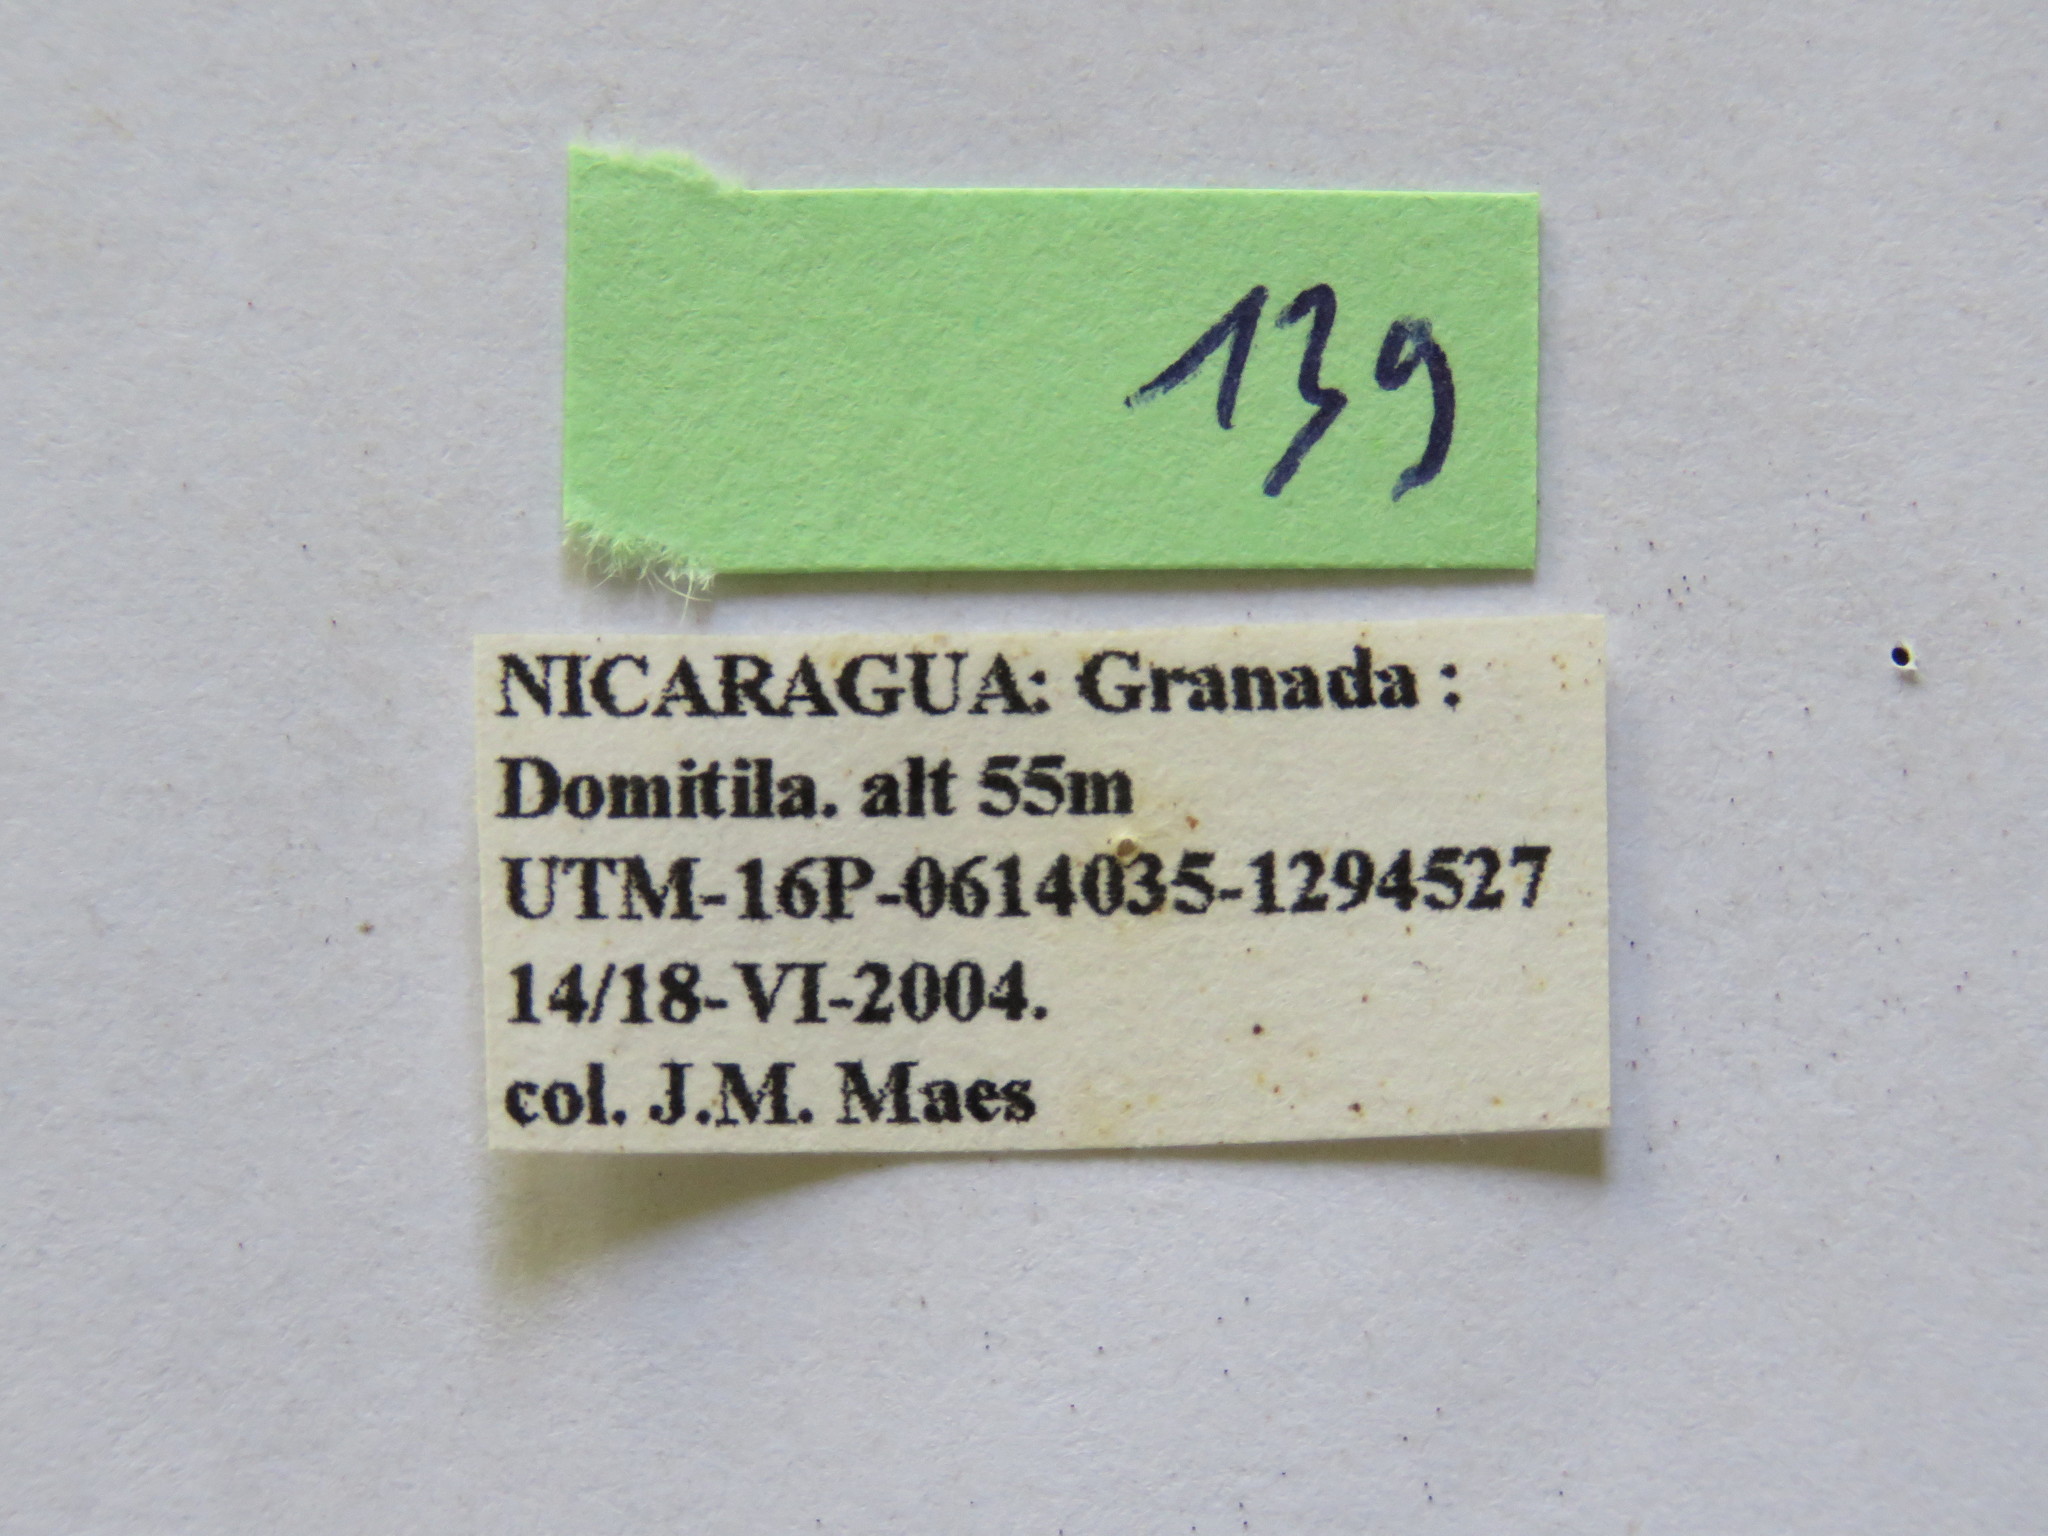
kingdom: Animalia
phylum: Arthropoda
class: Insecta
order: Hemiptera
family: Coreidae
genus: Pachylis
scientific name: Pachylis nervosus
